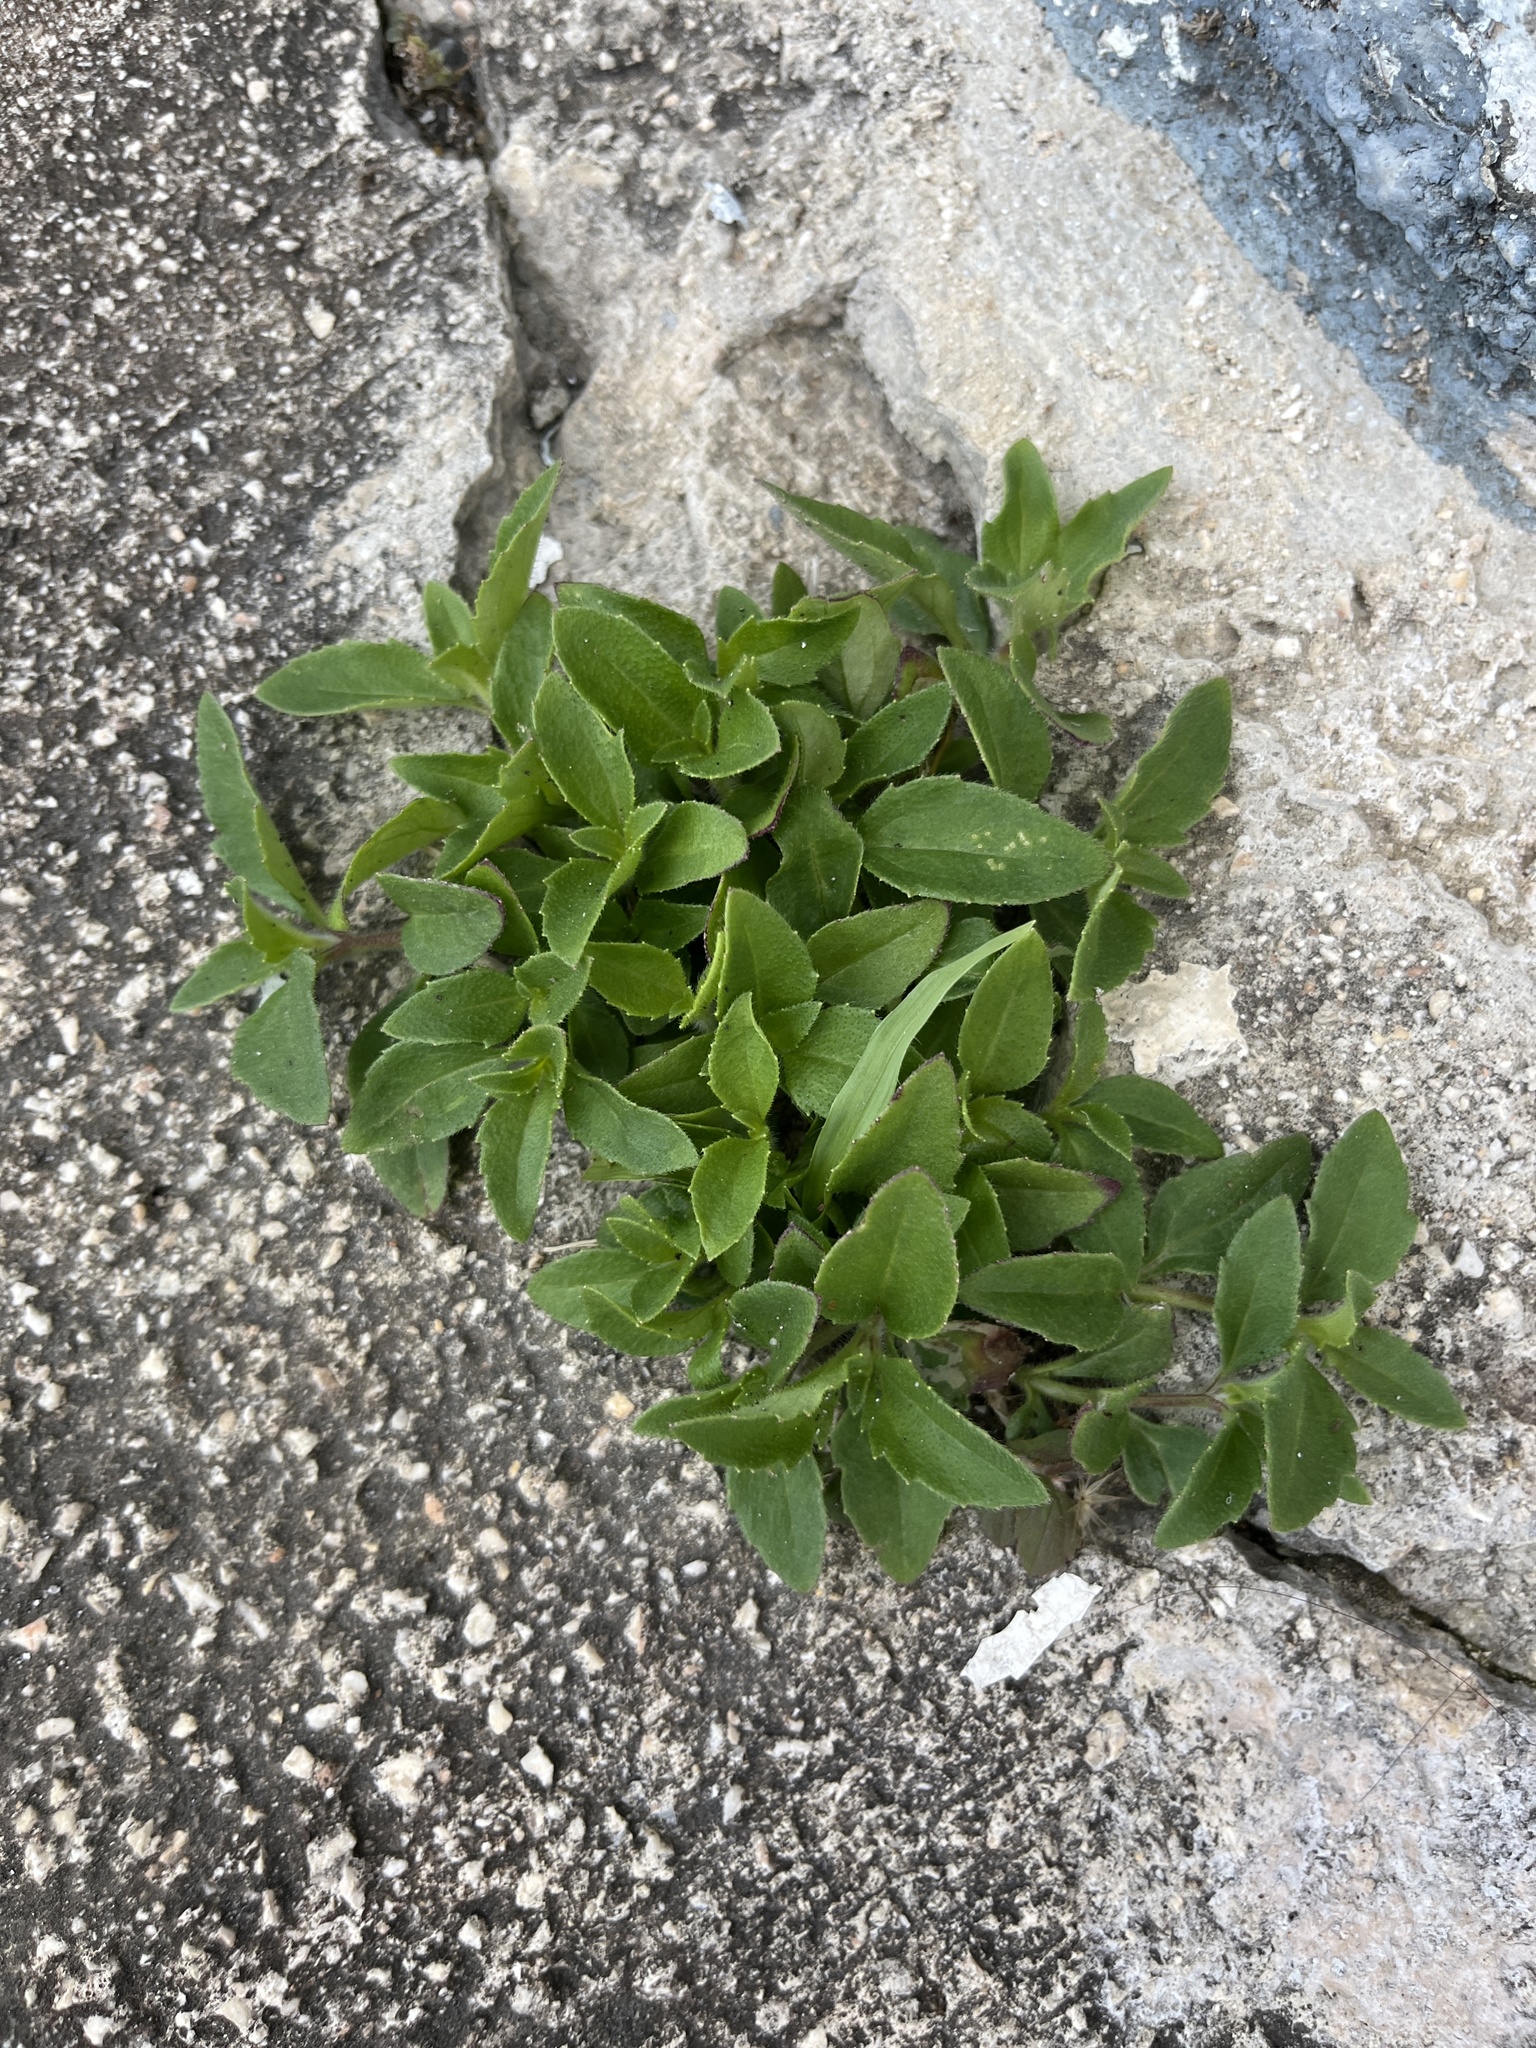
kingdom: Plantae
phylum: Tracheophyta
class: Magnoliopsida
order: Asterales
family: Asteraceae
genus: Tridax
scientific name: Tridax procumbens
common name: Coatbuttons
